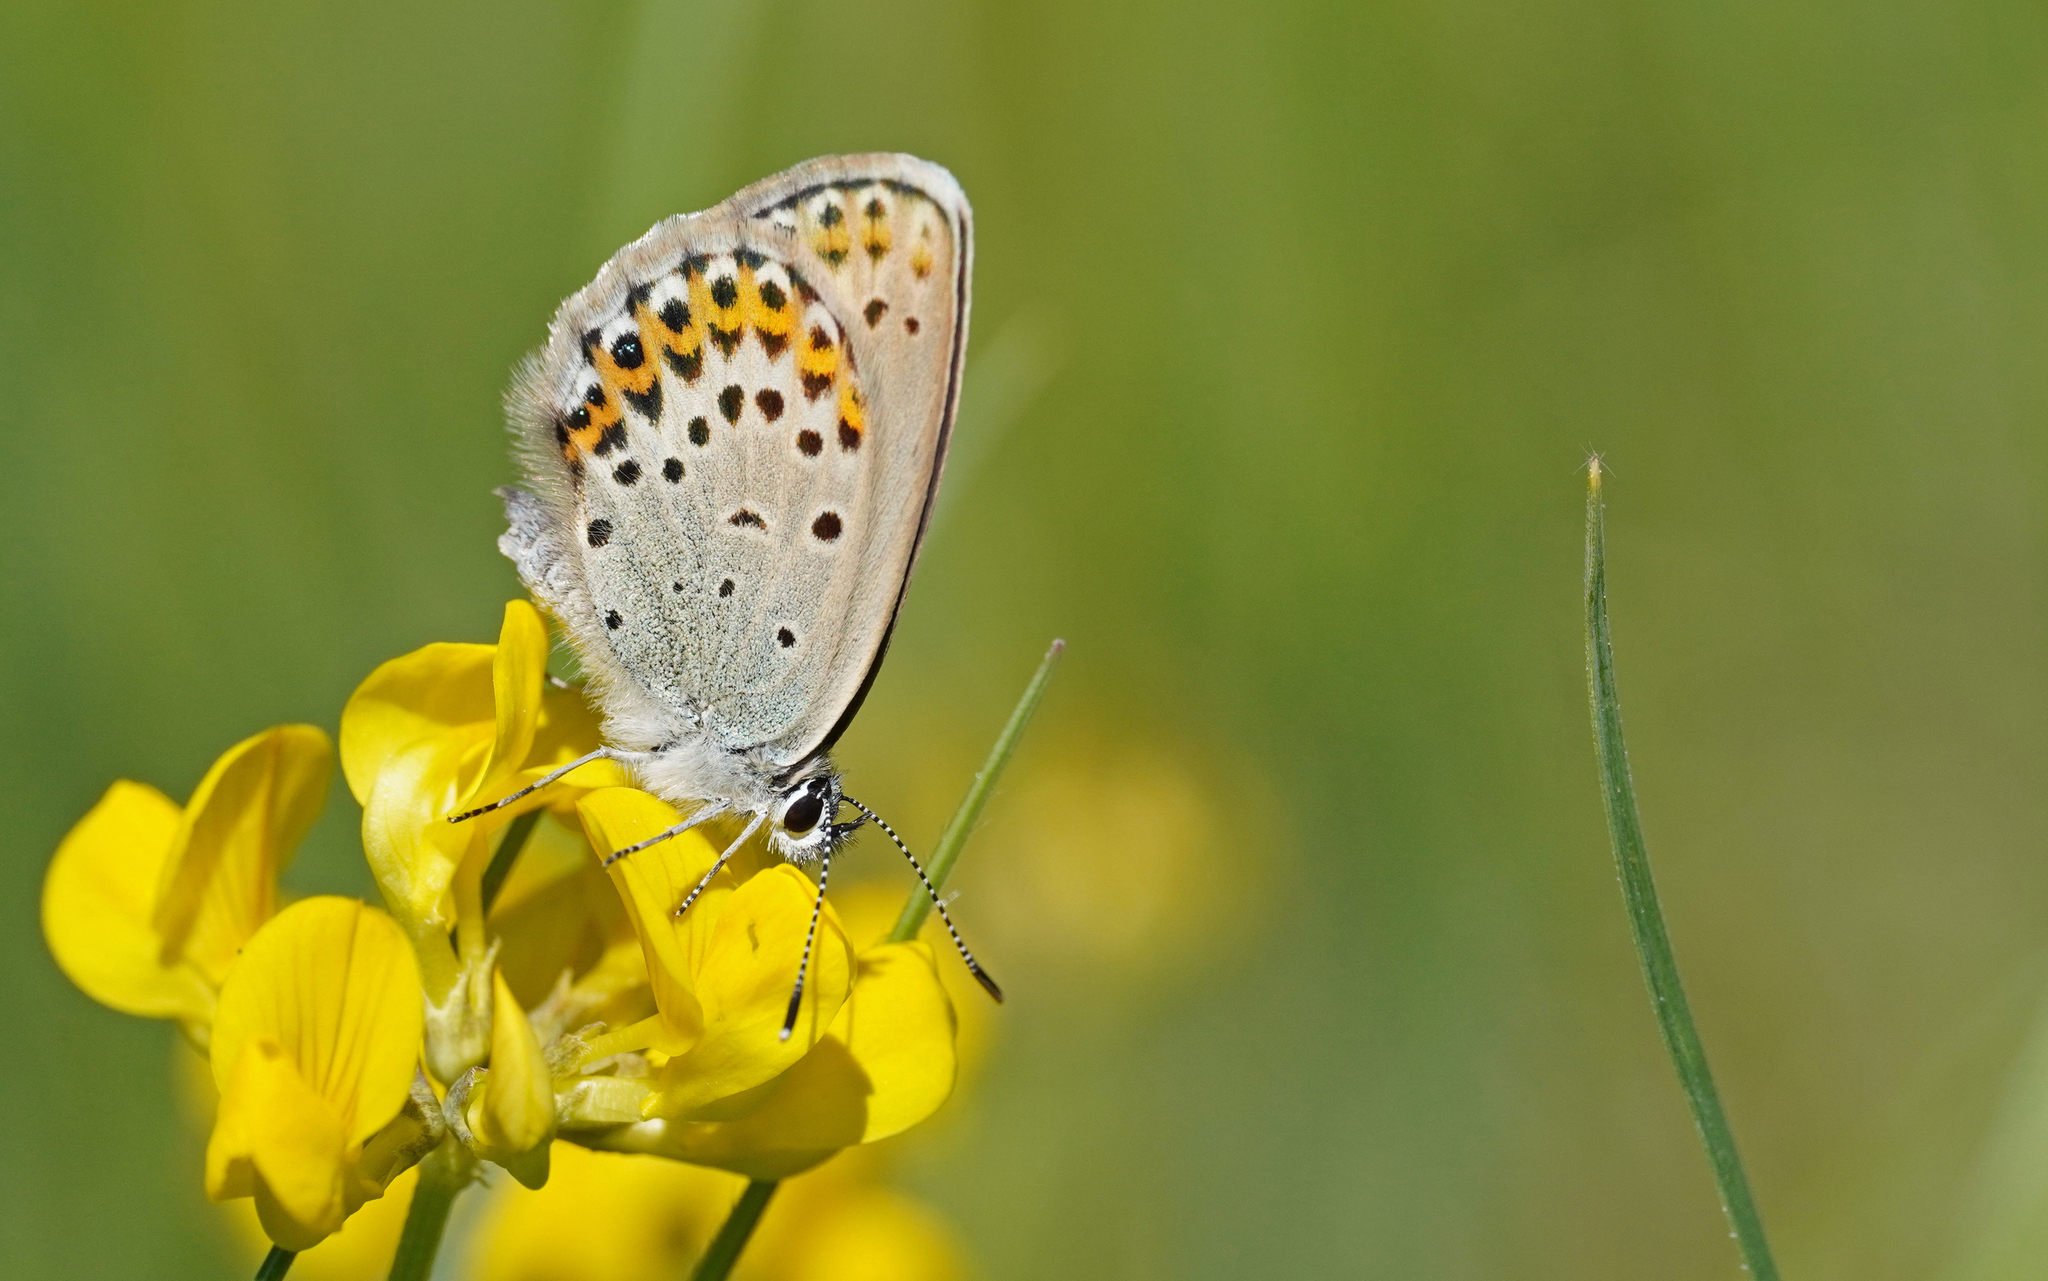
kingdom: Animalia
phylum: Arthropoda
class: Insecta
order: Lepidoptera
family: Lycaenidae
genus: Lycaeides
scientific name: Lycaeides idas
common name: Northern blue
